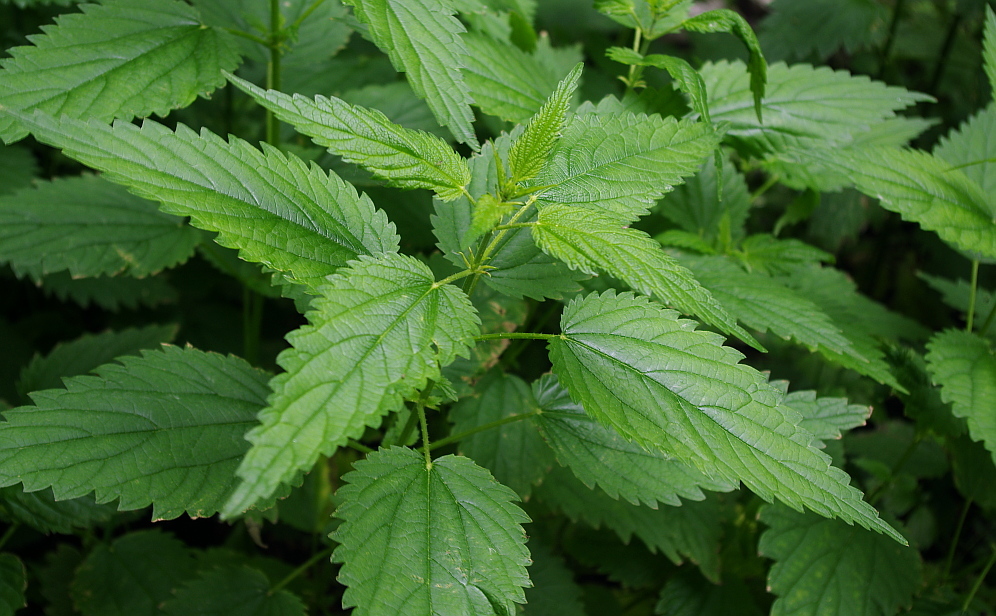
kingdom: Plantae
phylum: Tracheophyta
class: Magnoliopsida
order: Rosales
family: Urticaceae
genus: Urtica
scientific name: Urtica dioica
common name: Common nettle
